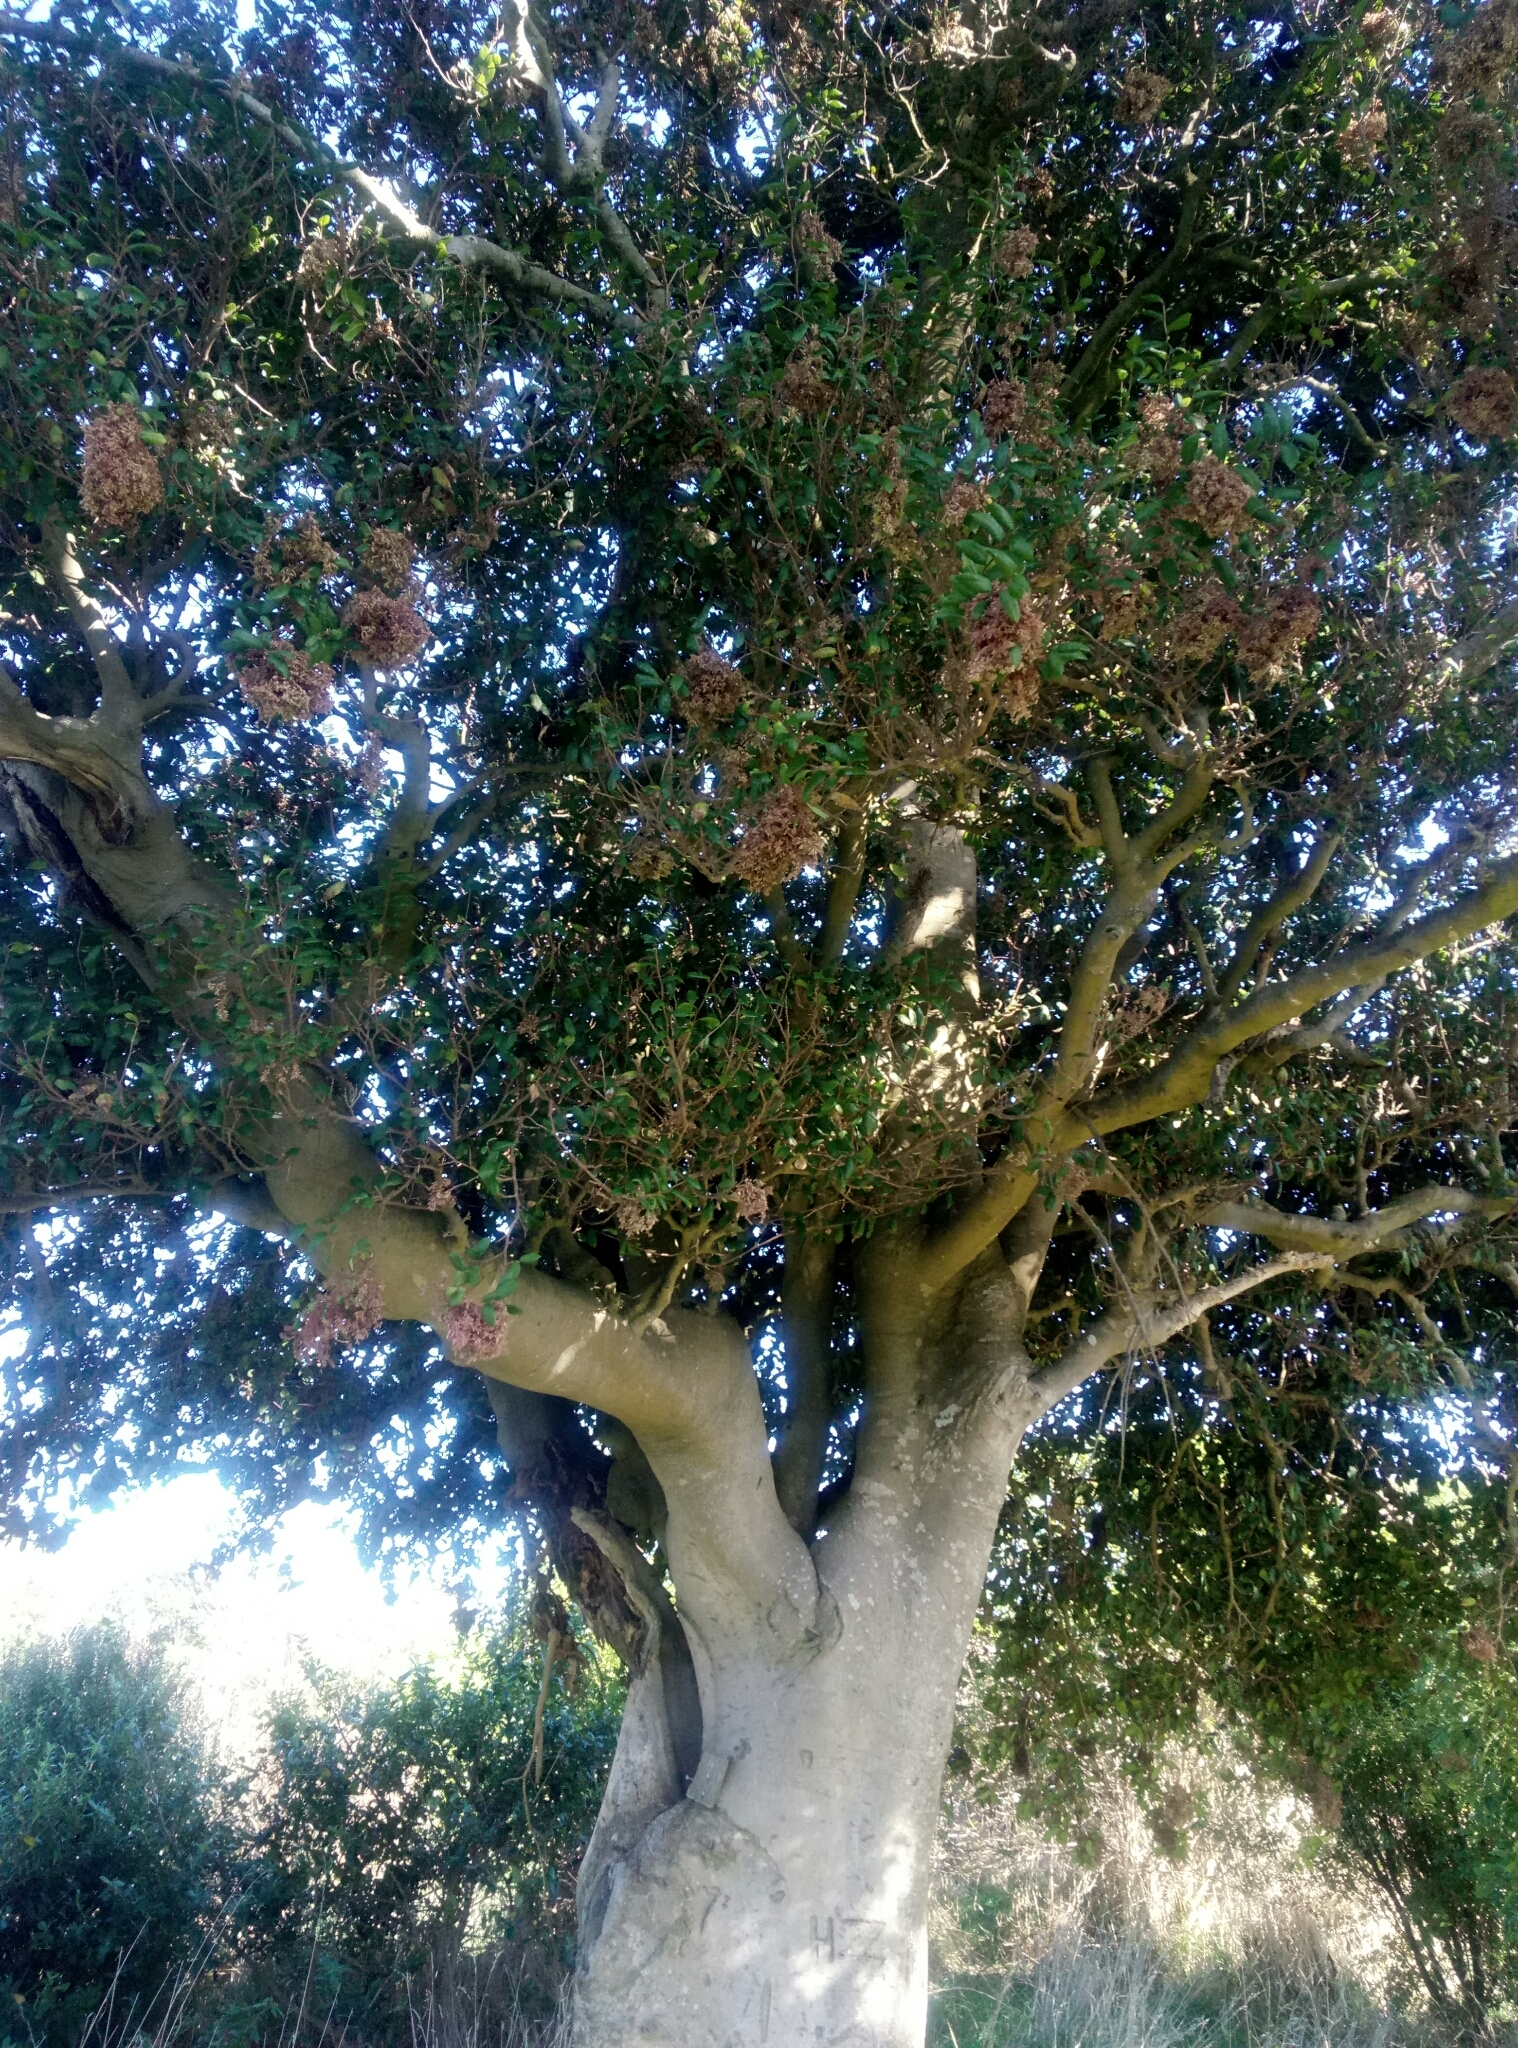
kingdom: Plantae
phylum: Tracheophyta
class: Magnoliopsida
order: Rosales
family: Moraceae
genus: Paratrophis
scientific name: Paratrophis banksii
